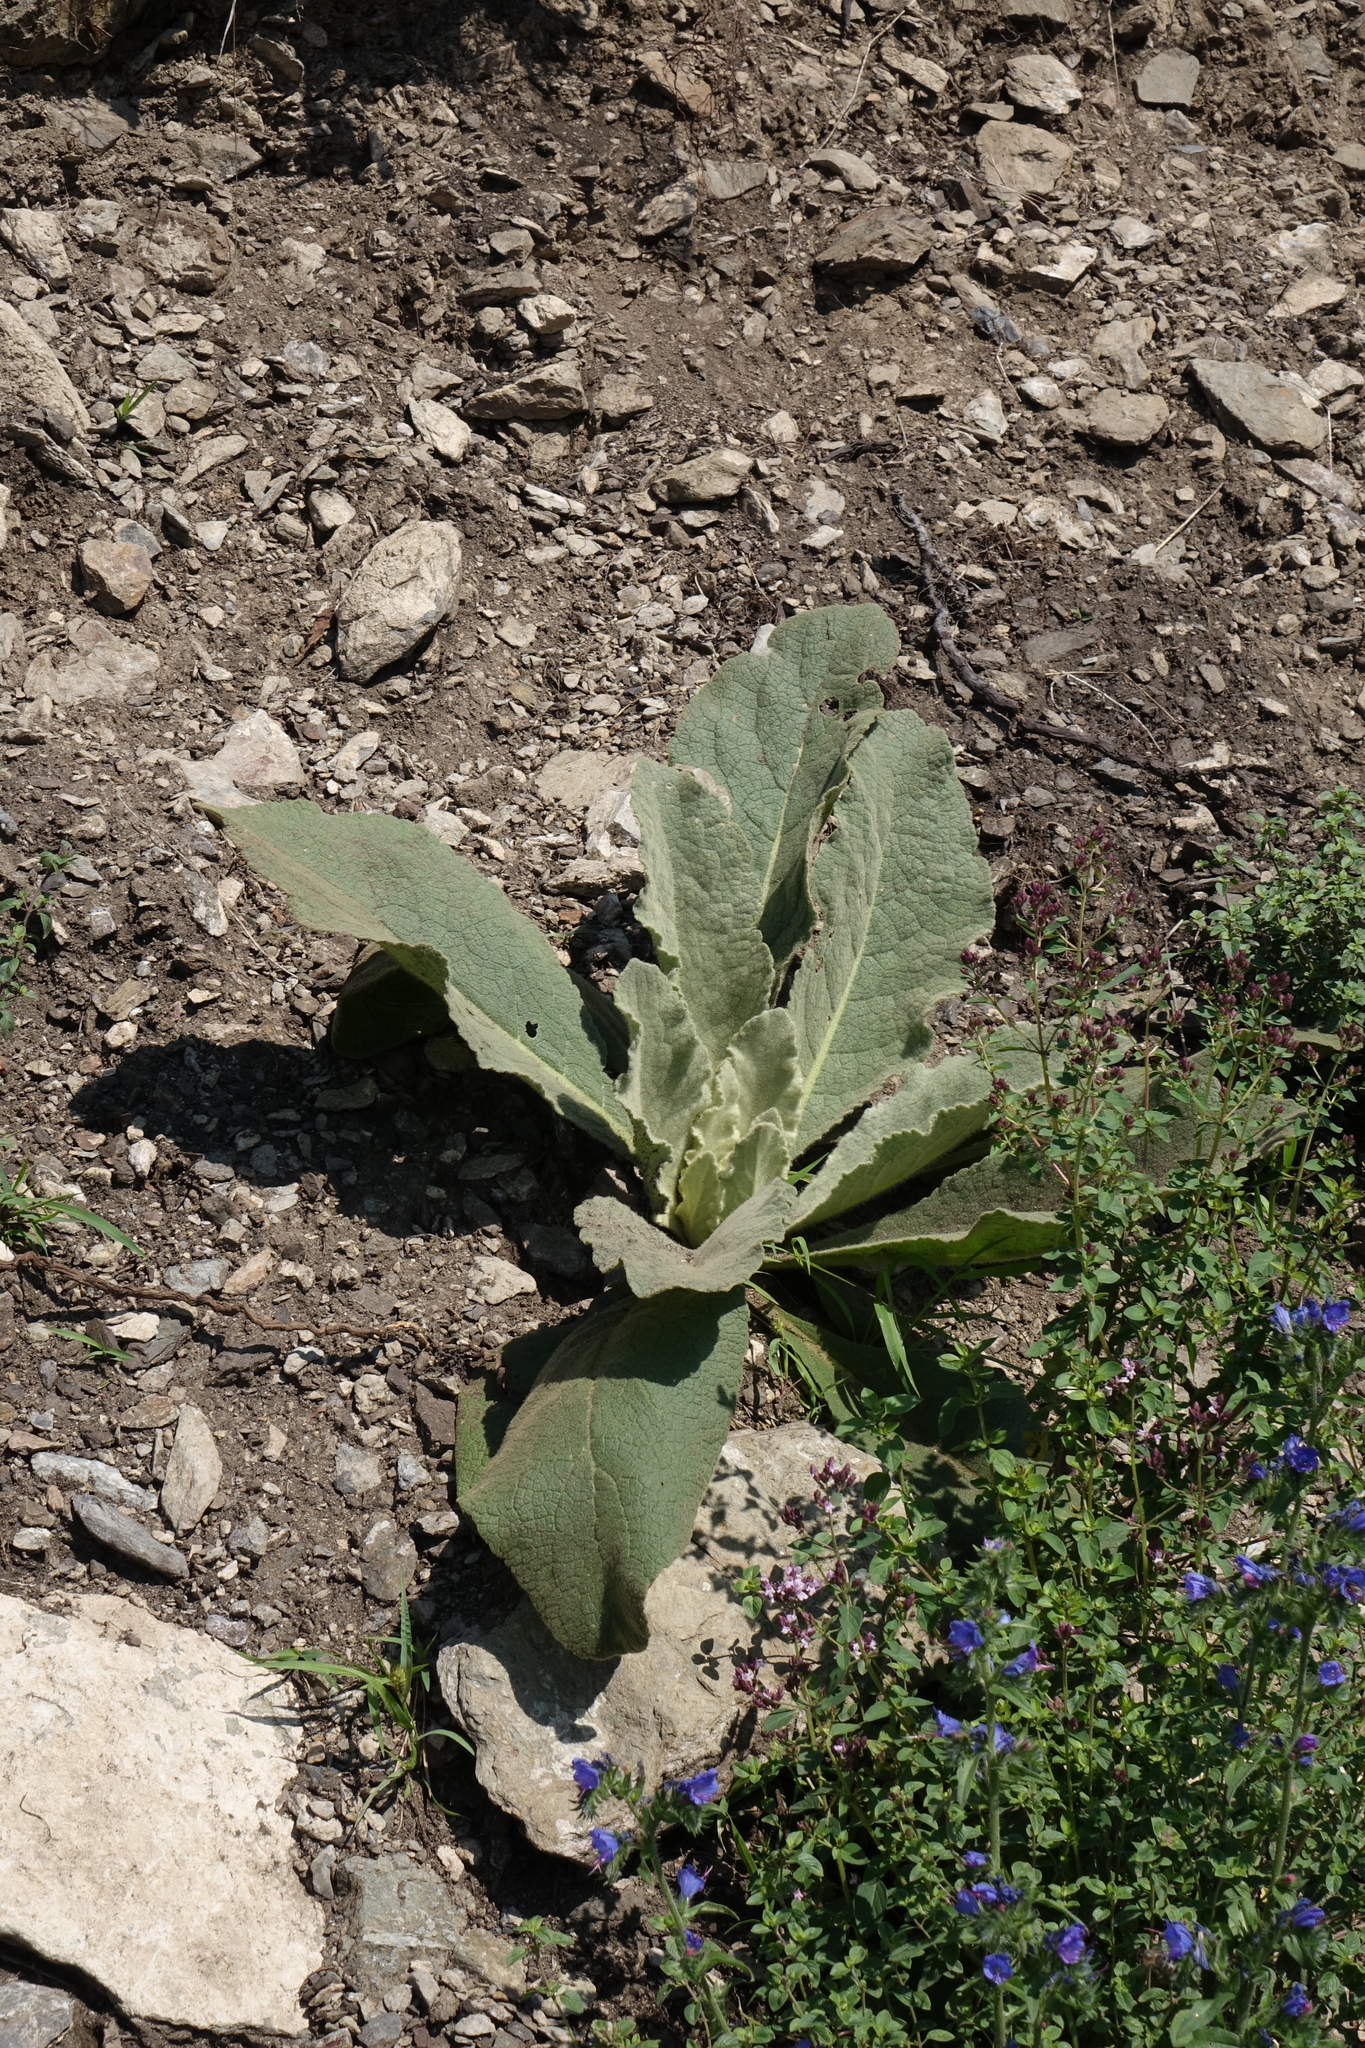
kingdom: Plantae
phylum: Tracheophyta
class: Magnoliopsida
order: Lamiales
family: Scrophulariaceae
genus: Verbascum
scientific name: Verbascum thapsus
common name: Common mullein
